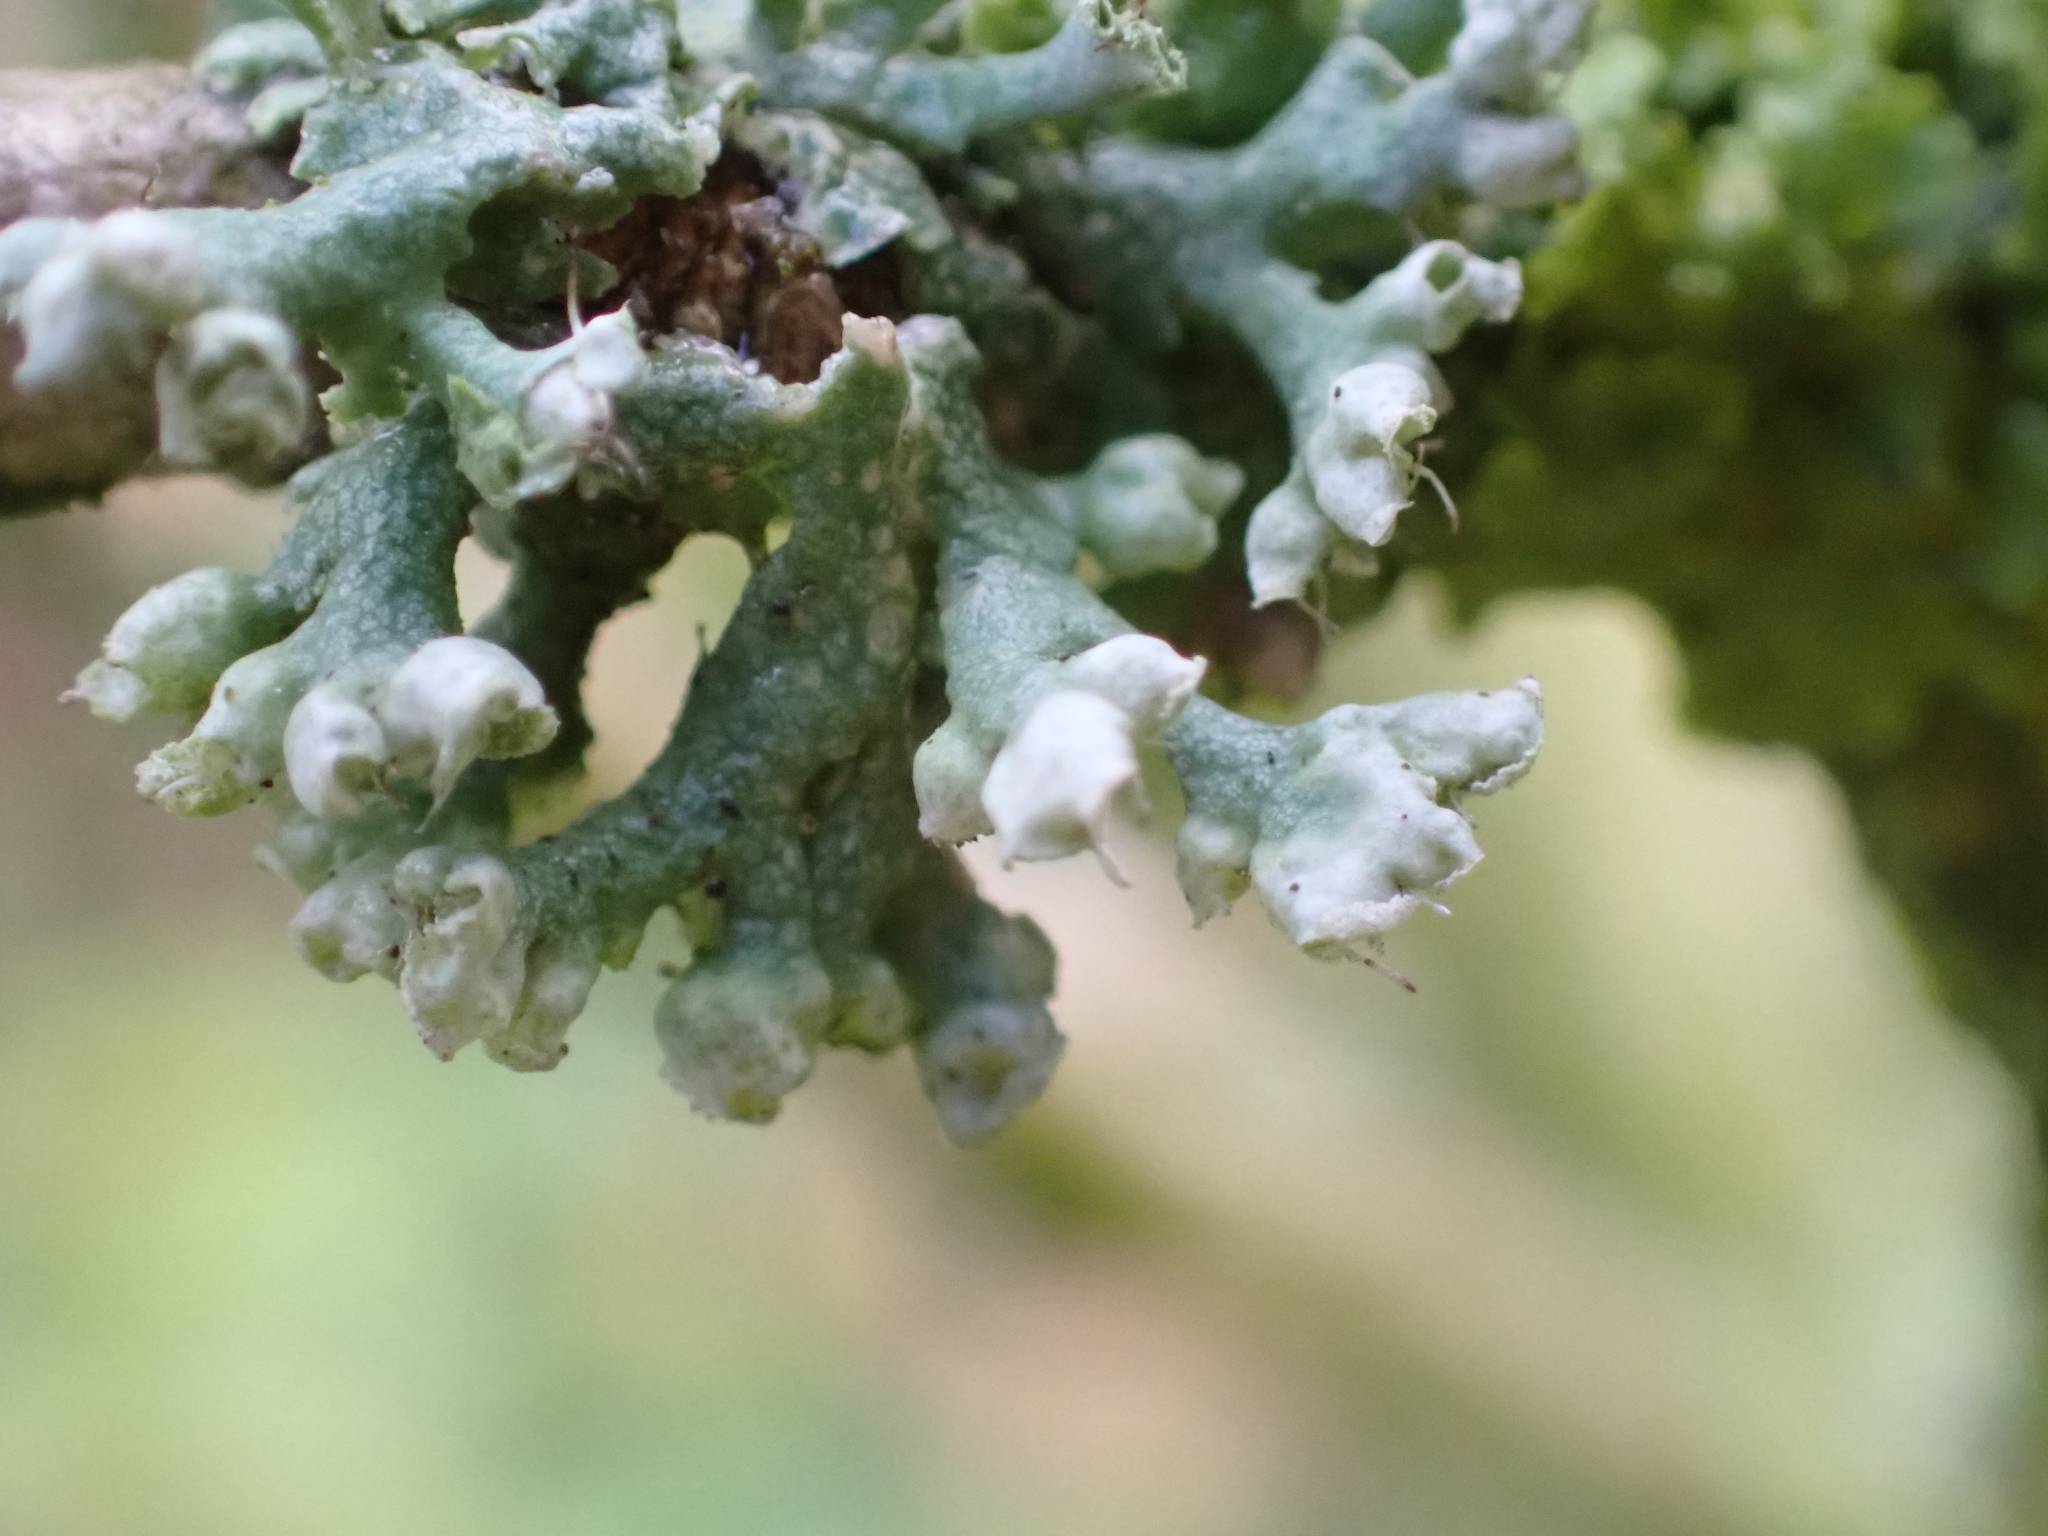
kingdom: Fungi
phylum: Ascomycota
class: Lecanoromycetes
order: Caliciales
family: Physciaceae
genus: Physcia
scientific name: Physcia adscendens
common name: Hooded rosette lichen
